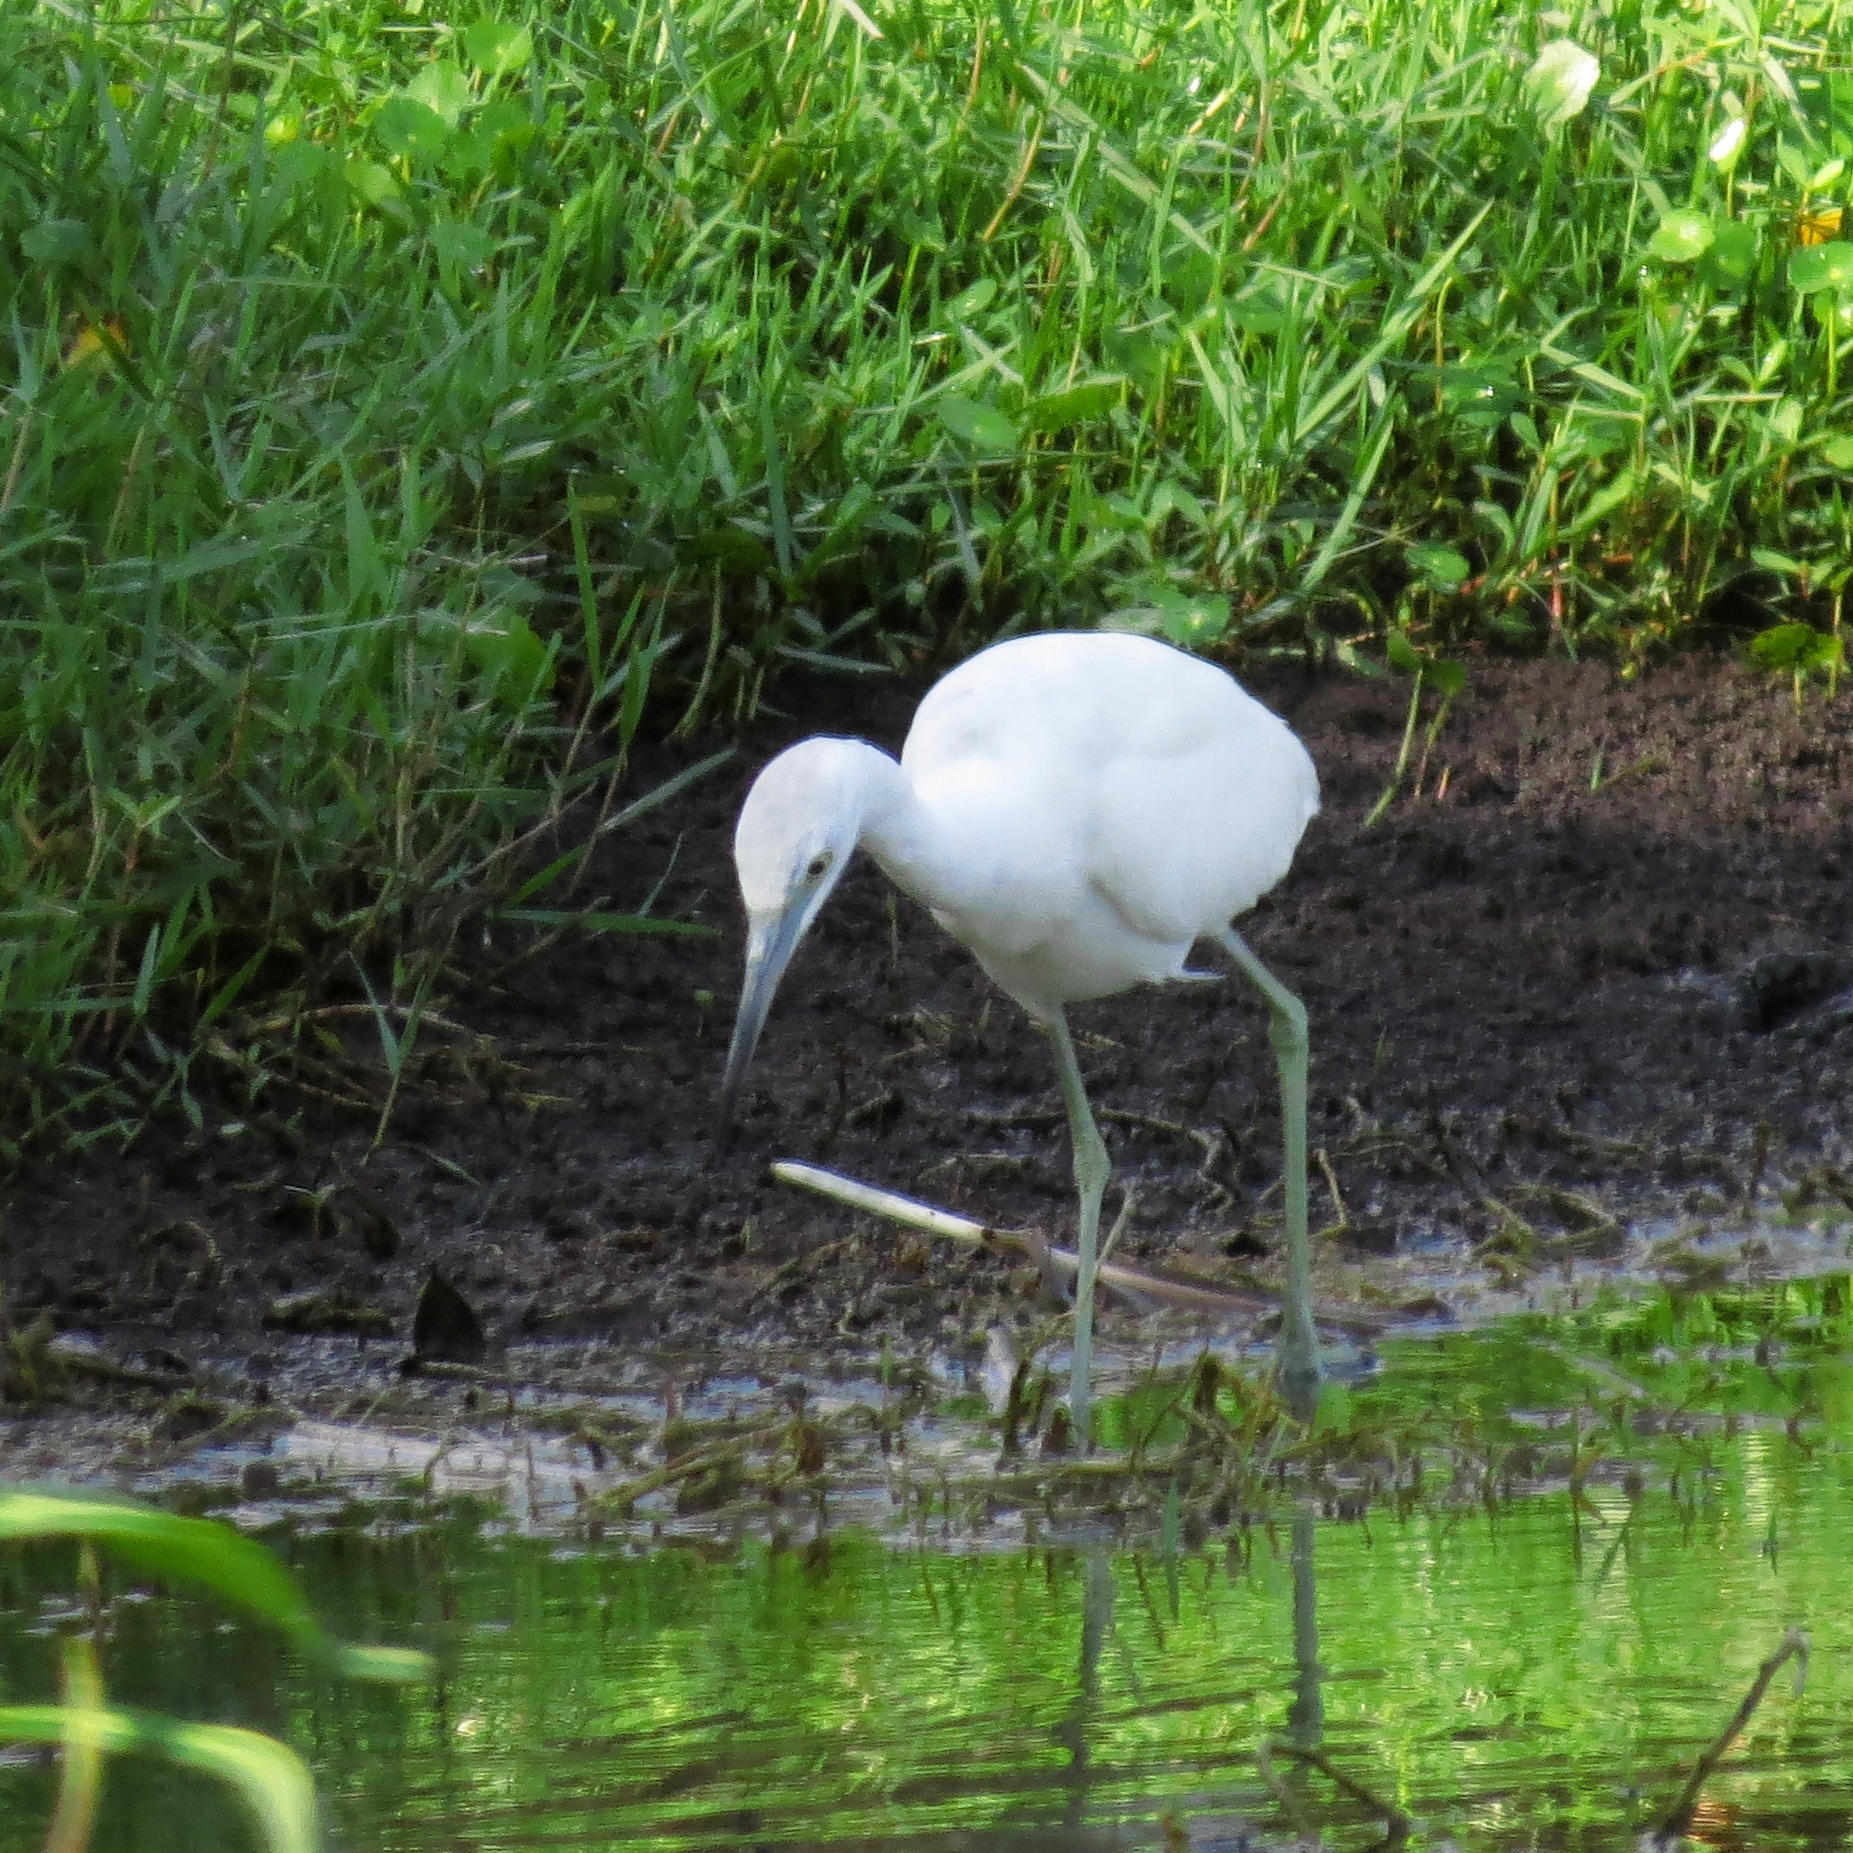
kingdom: Animalia
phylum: Chordata
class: Aves
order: Pelecaniformes
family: Ardeidae
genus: Egretta
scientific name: Egretta caerulea
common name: Little blue heron
